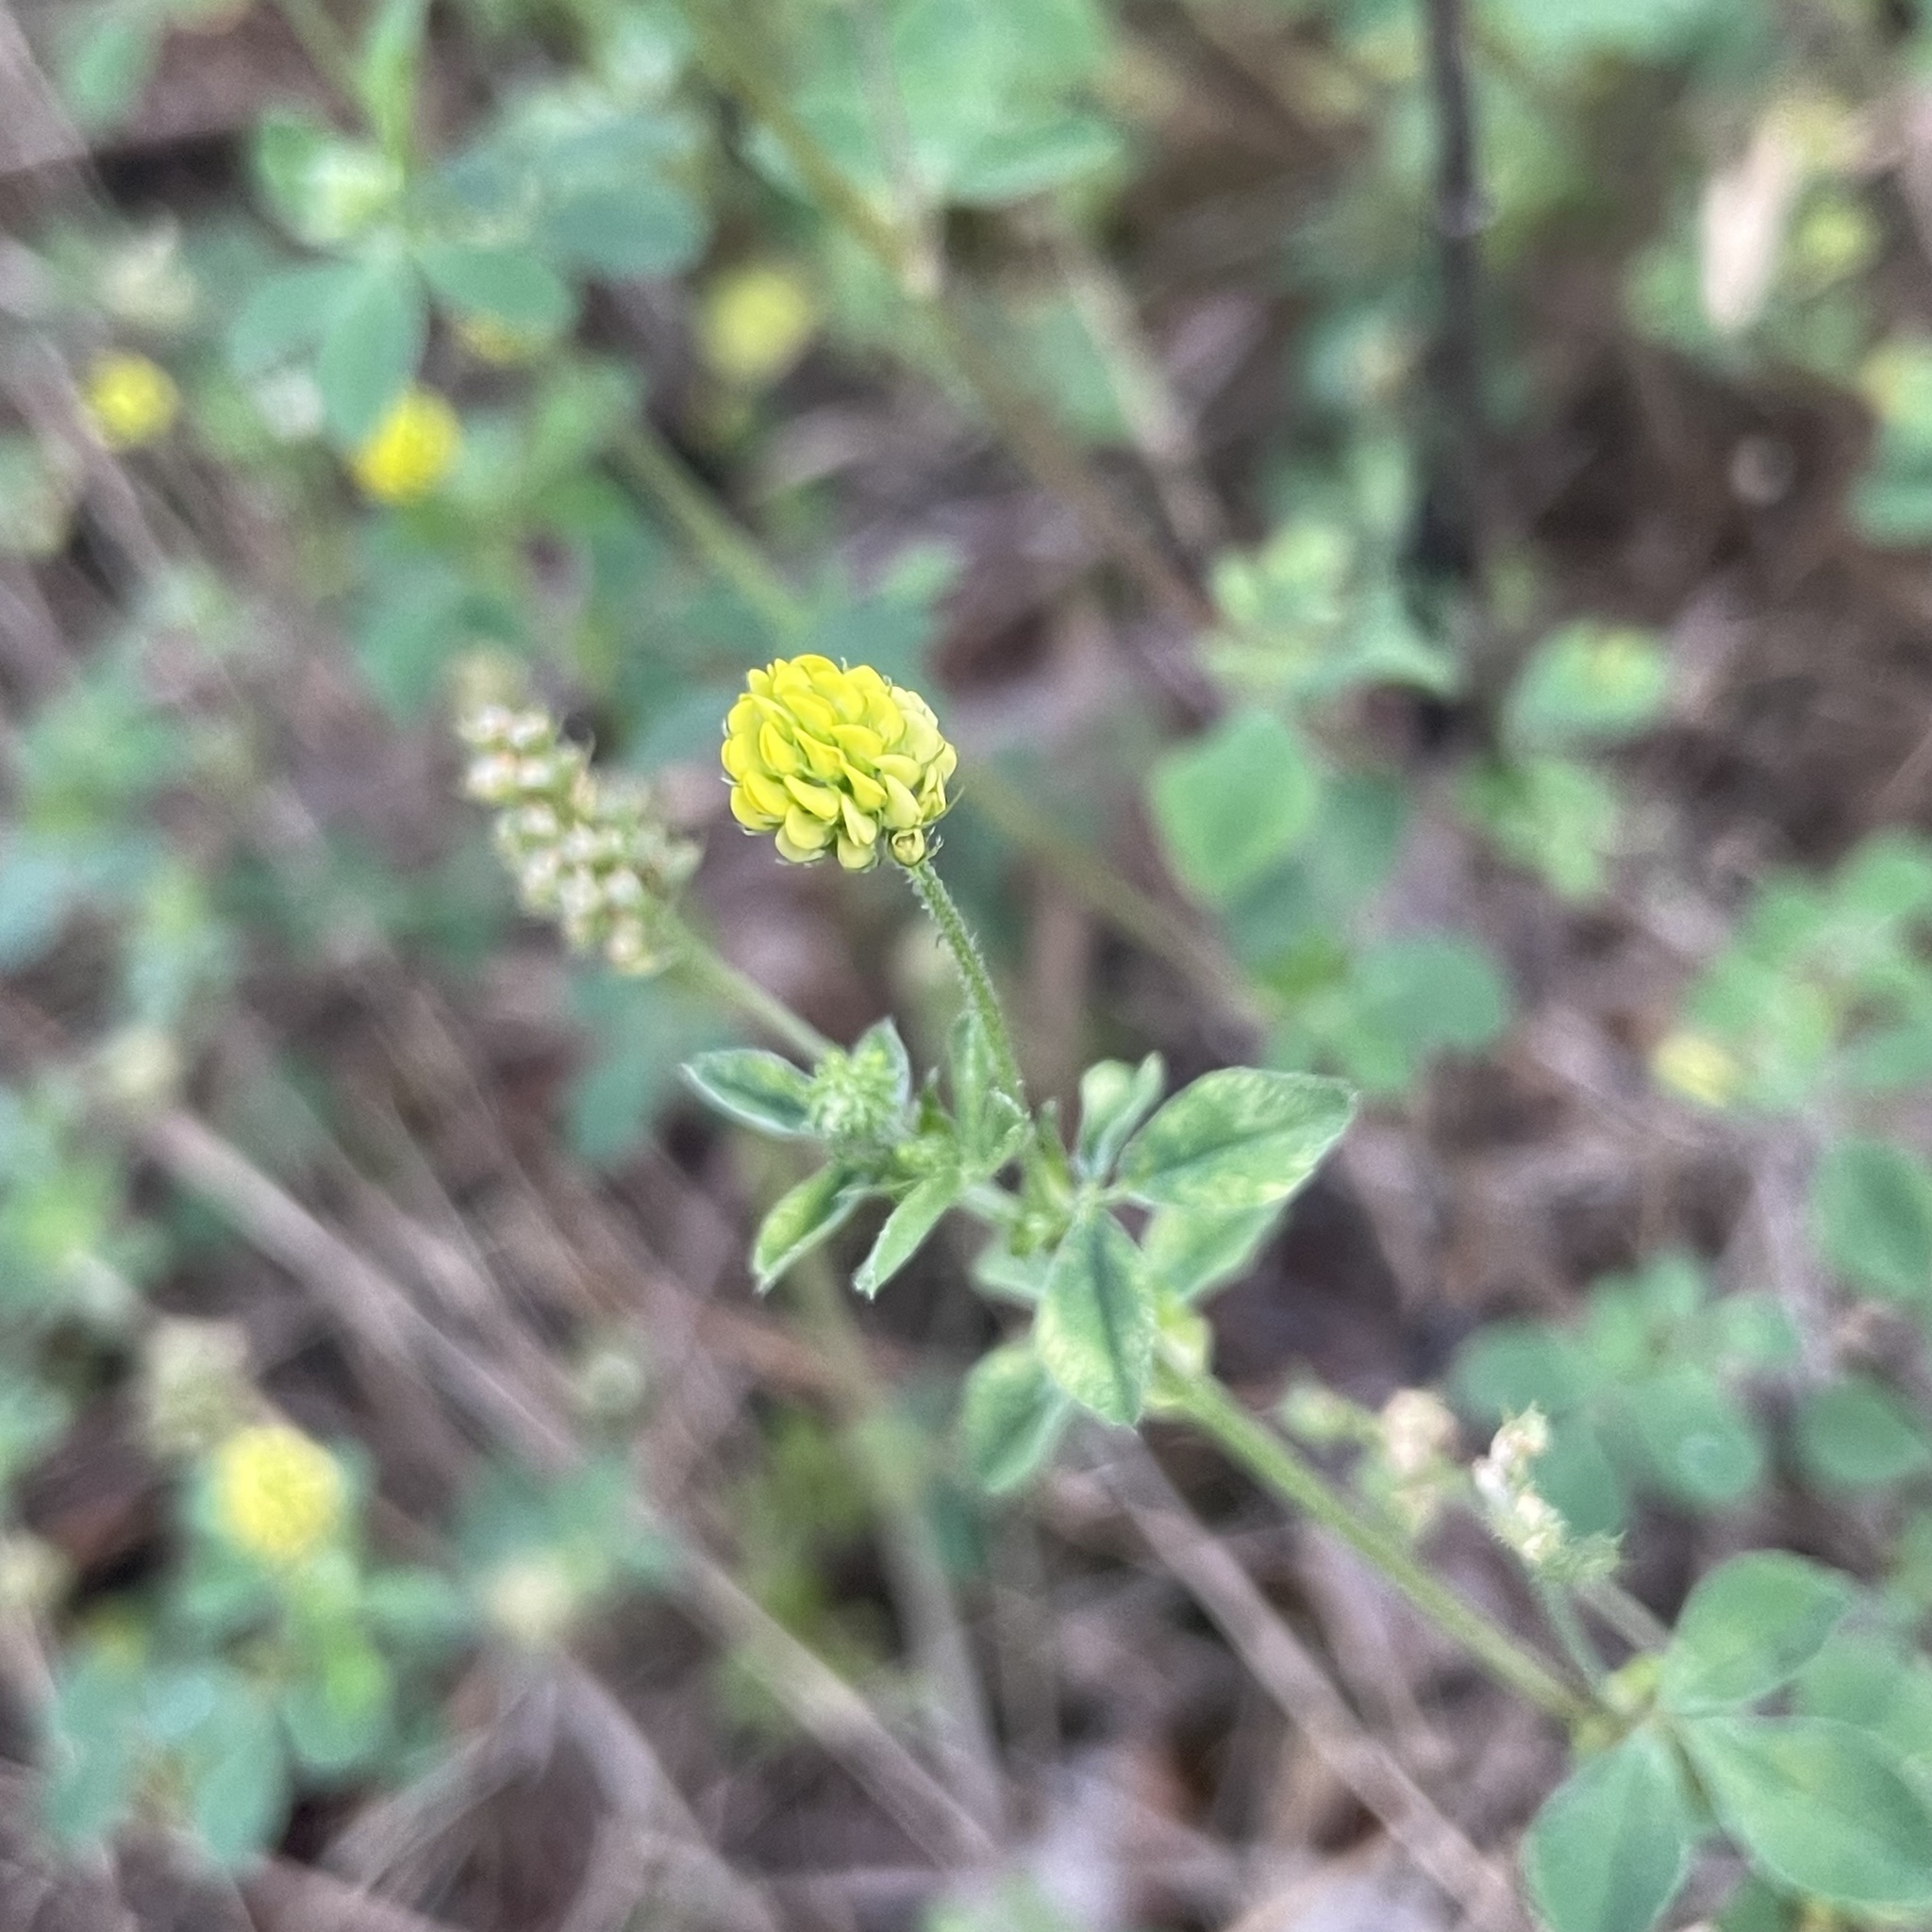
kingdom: Plantae
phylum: Tracheophyta
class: Magnoliopsida
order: Fabales
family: Fabaceae
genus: Medicago
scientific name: Medicago lupulina
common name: Black medick
